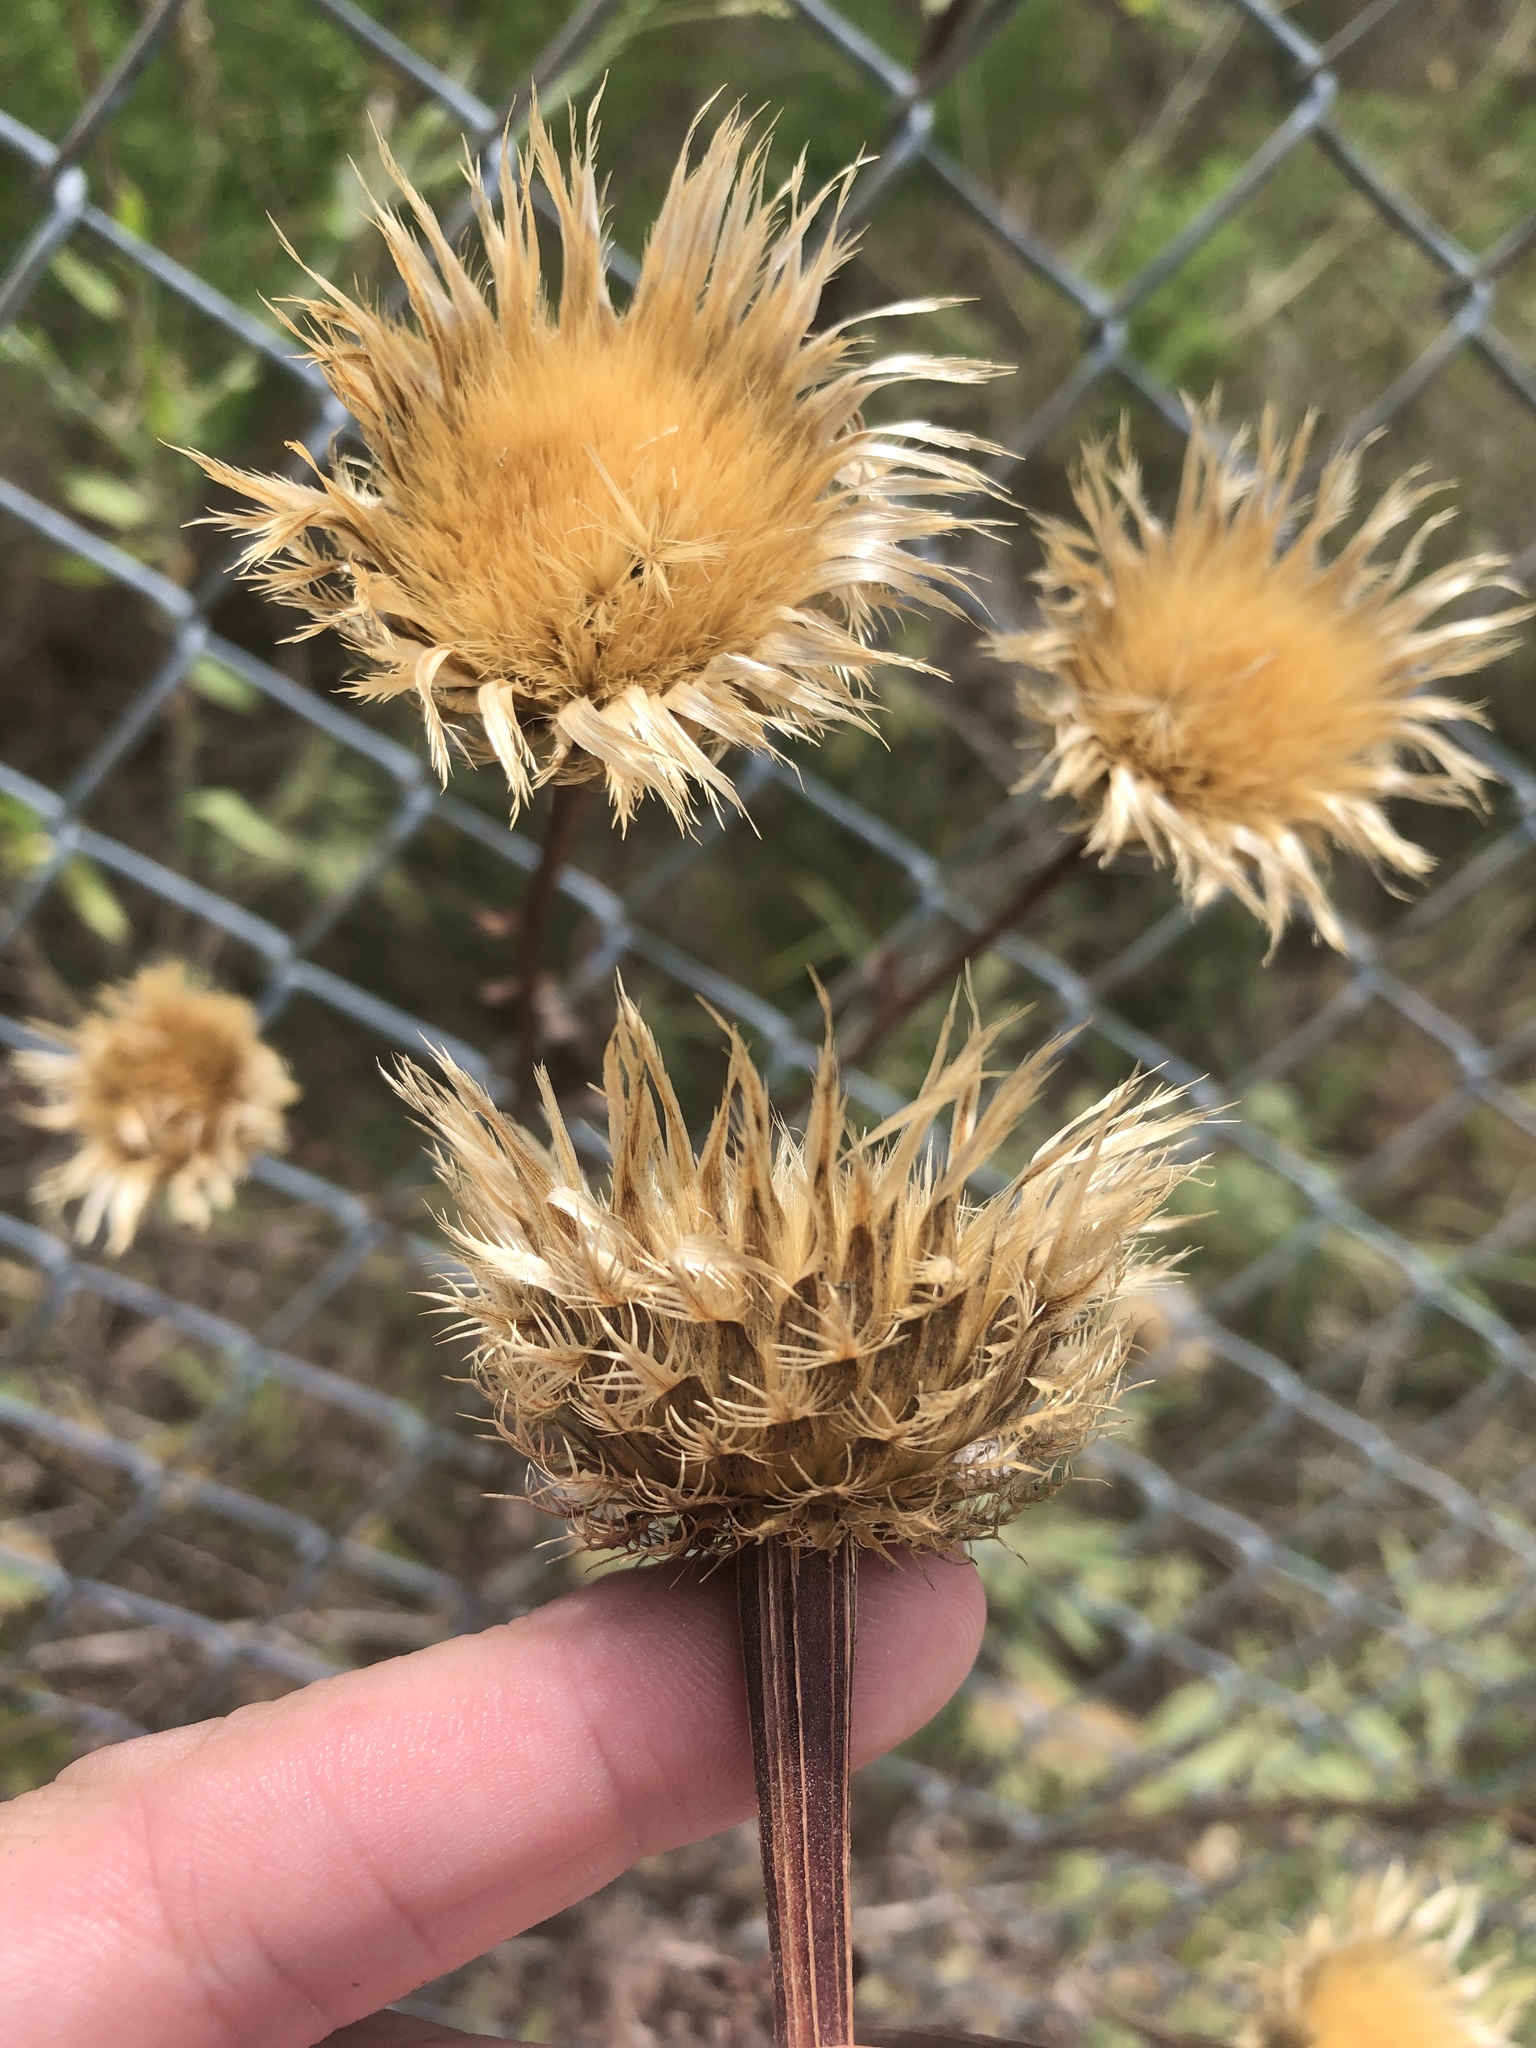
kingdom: Plantae
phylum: Tracheophyta
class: Magnoliopsida
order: Asterales
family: Asteraceae
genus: Plectocephalus
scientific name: Plectocephalus americanus
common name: American basket-flower
